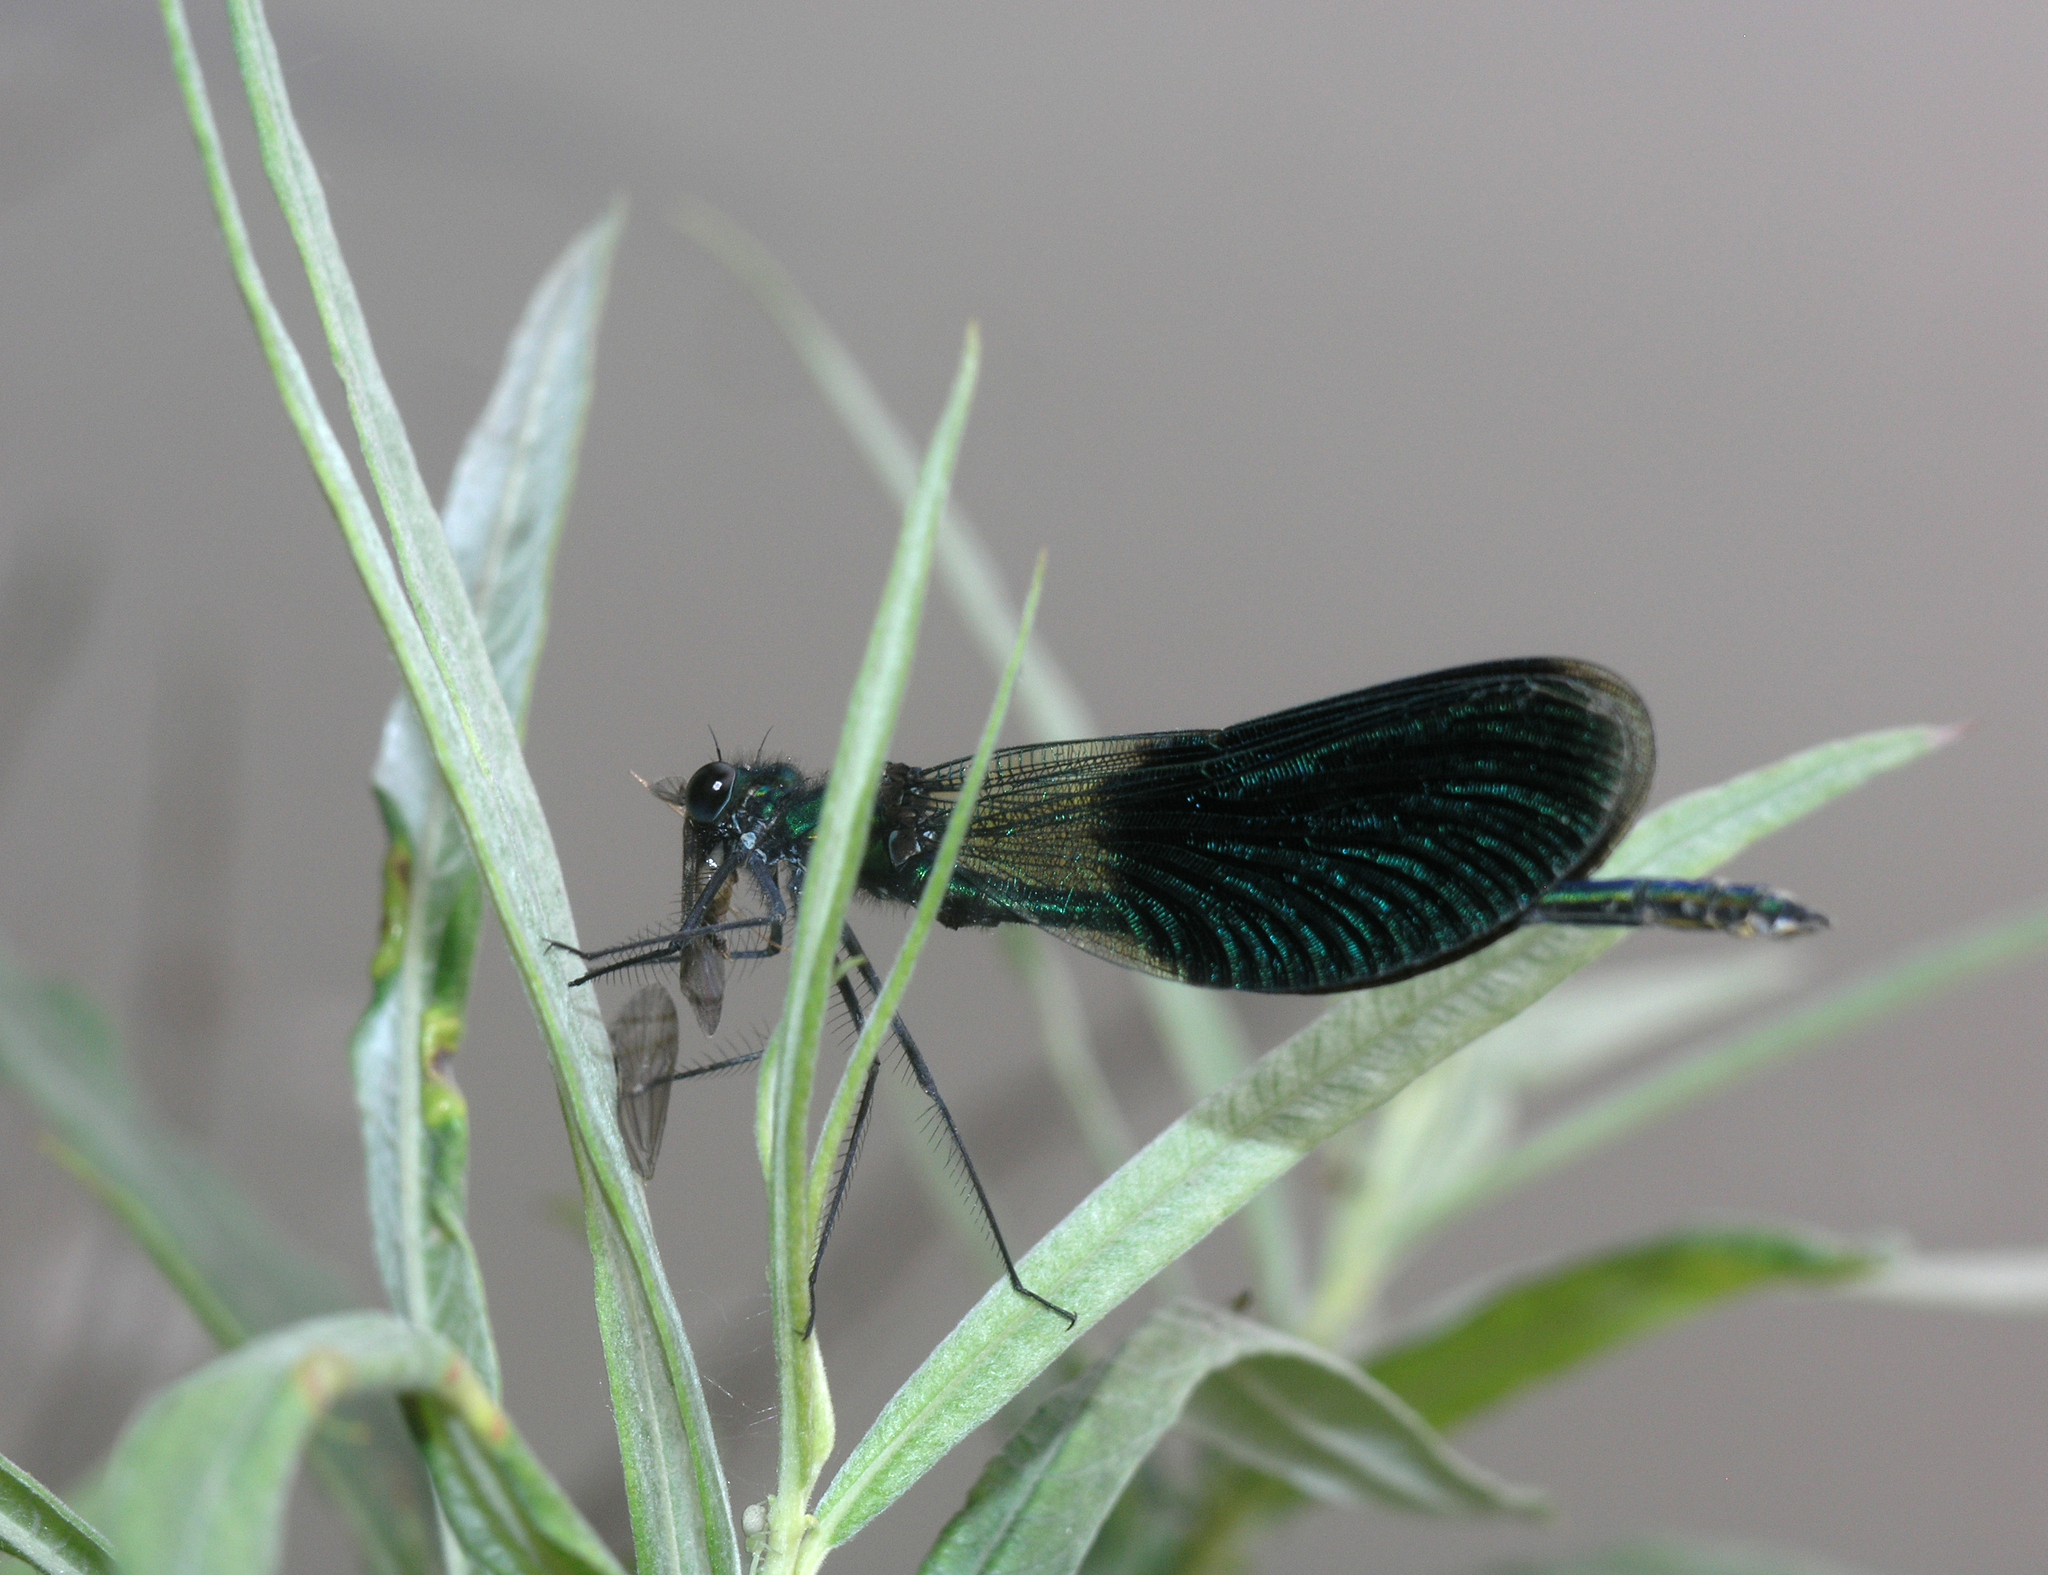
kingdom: Animalia
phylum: Arthropoda
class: Insecta
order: Odonata
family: Calopterygidae
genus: Calopteryx
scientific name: Calopteryx splendens
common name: Banded demoiselle
